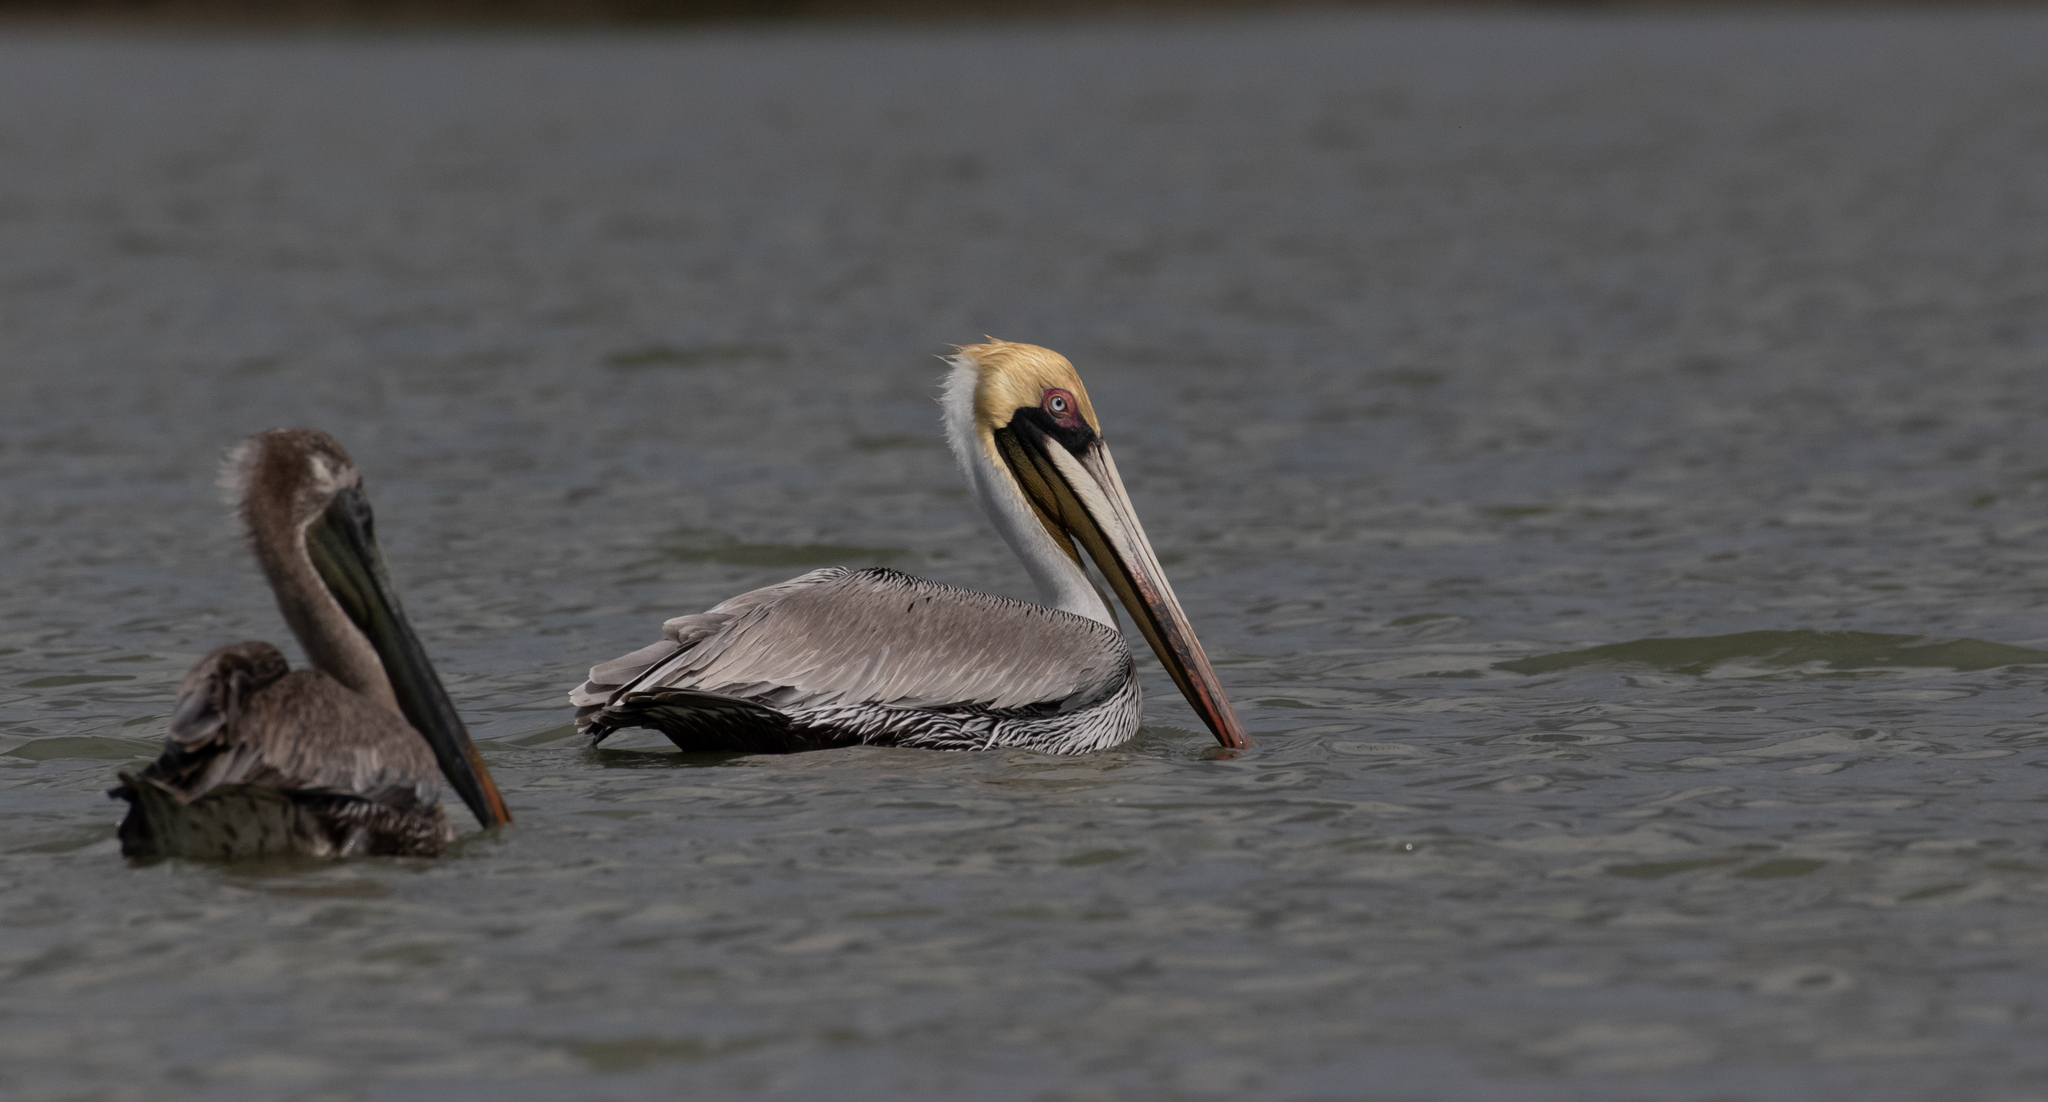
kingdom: Animalia
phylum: Chordata
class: Aves
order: Pelecaniformes
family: Pelecanidae
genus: Pelecanus
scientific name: Pelecanus occidentalis
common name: Brown pelican
